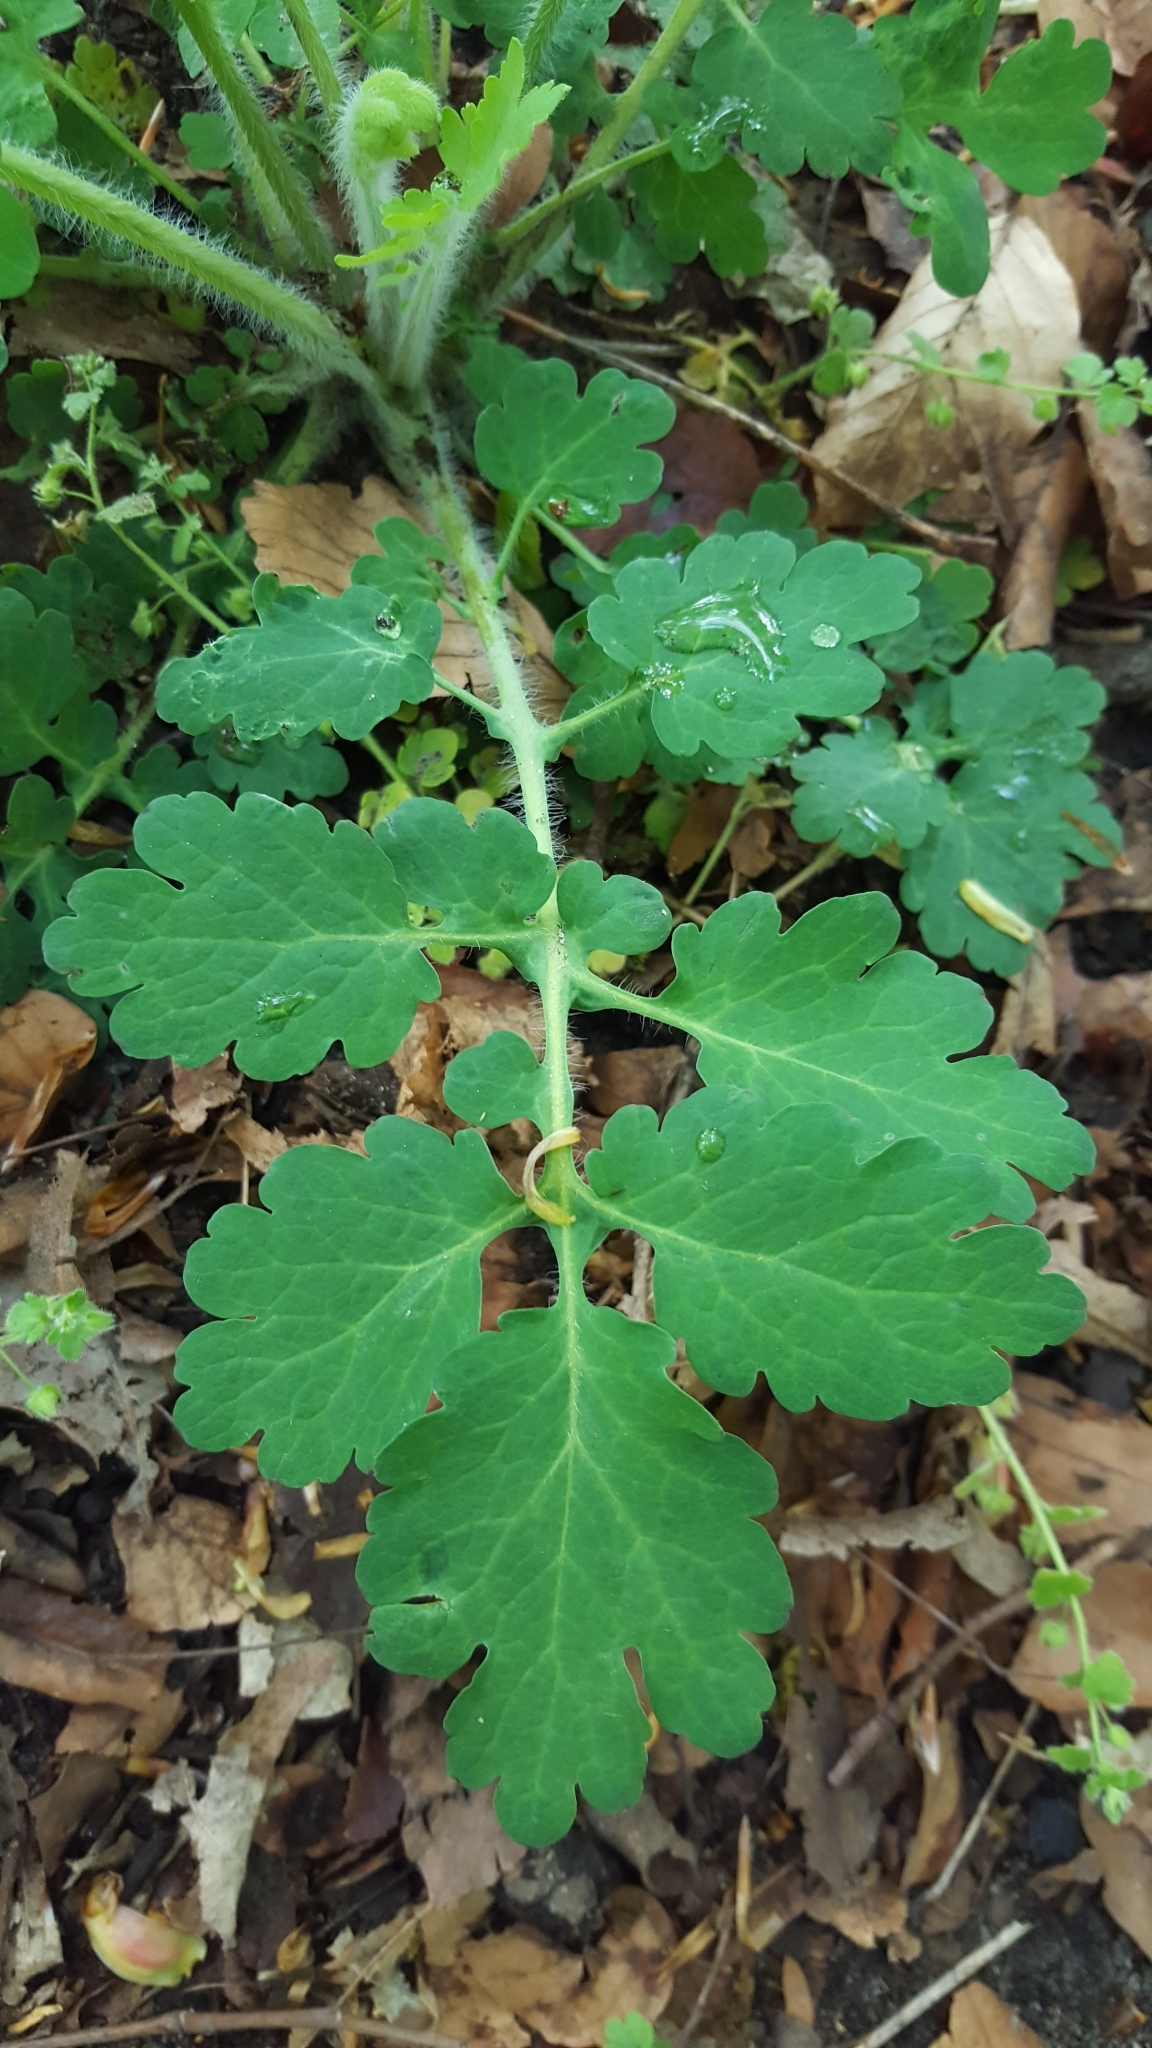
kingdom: Plantae
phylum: Tracheophyta
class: Magnoliopsida
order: Ranunculales
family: Papaveraceae
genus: Chelidonium
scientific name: Chelidonium majus
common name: Greater celandine
